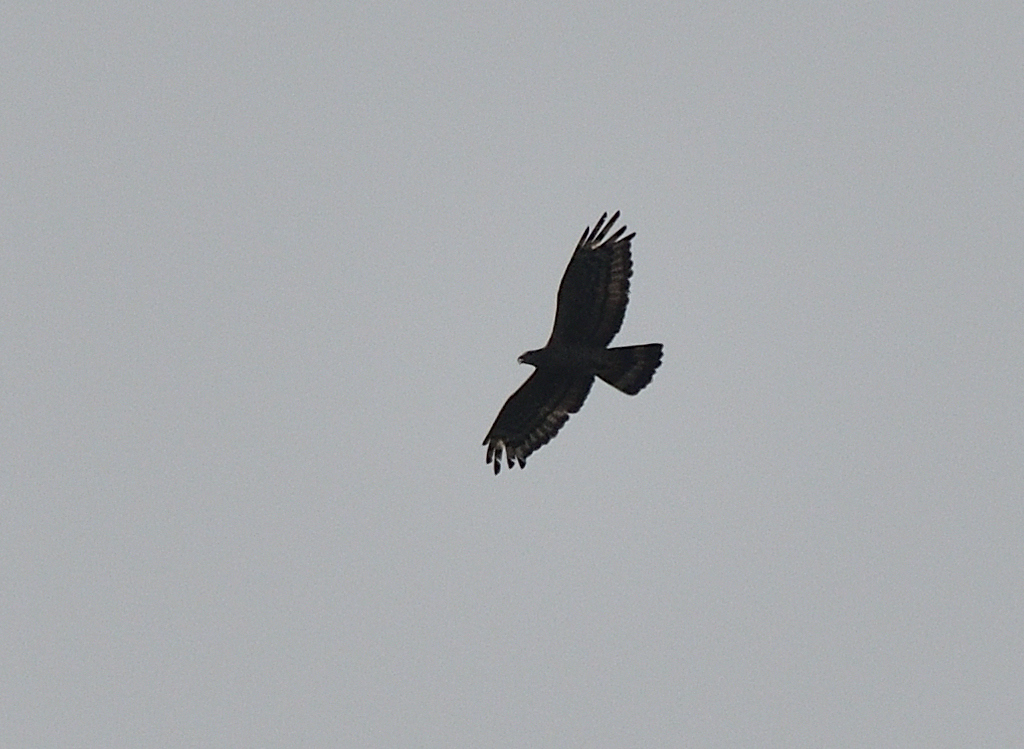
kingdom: Animalia
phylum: Chordata
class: Aves
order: Accipitriformes
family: Accipitridae
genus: Pernis
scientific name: Pernis ptilorhynchus
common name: Crested honey buzzard
